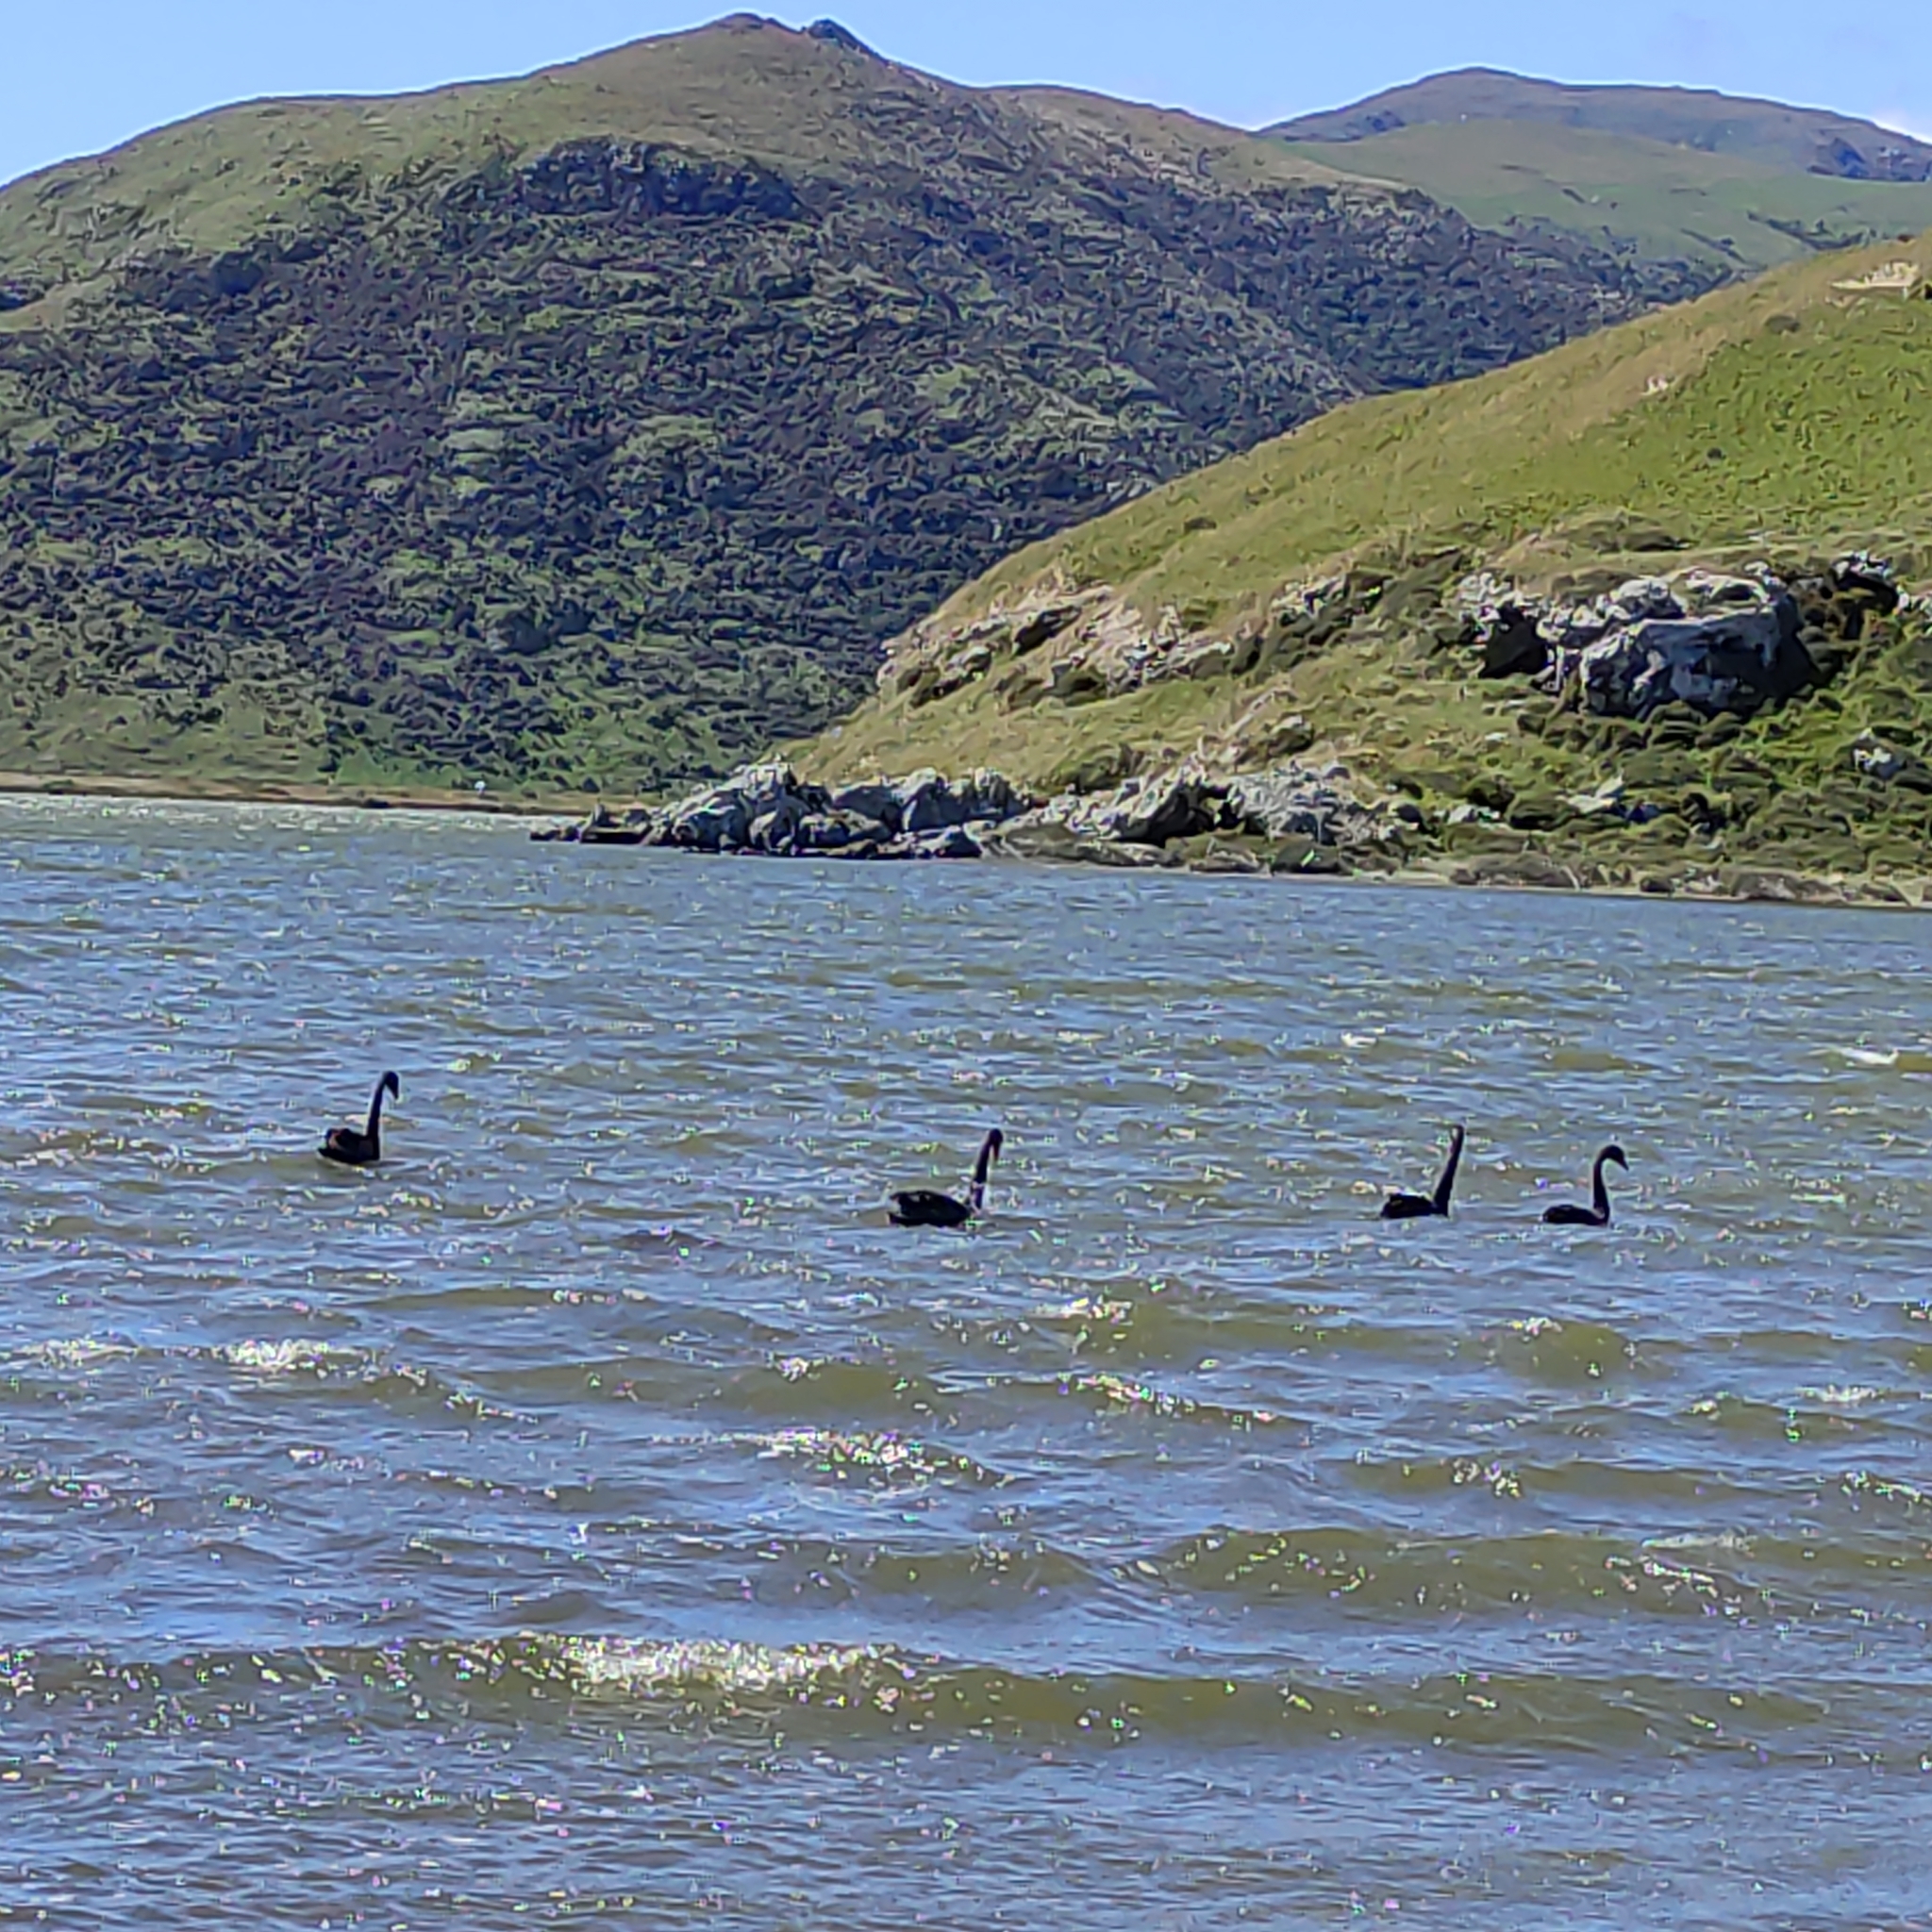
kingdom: Animalia
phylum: Chordata
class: Aves
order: Anseriformes
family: Anatidae
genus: Cygnus
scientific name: Cygnus atratus
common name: Black swan
